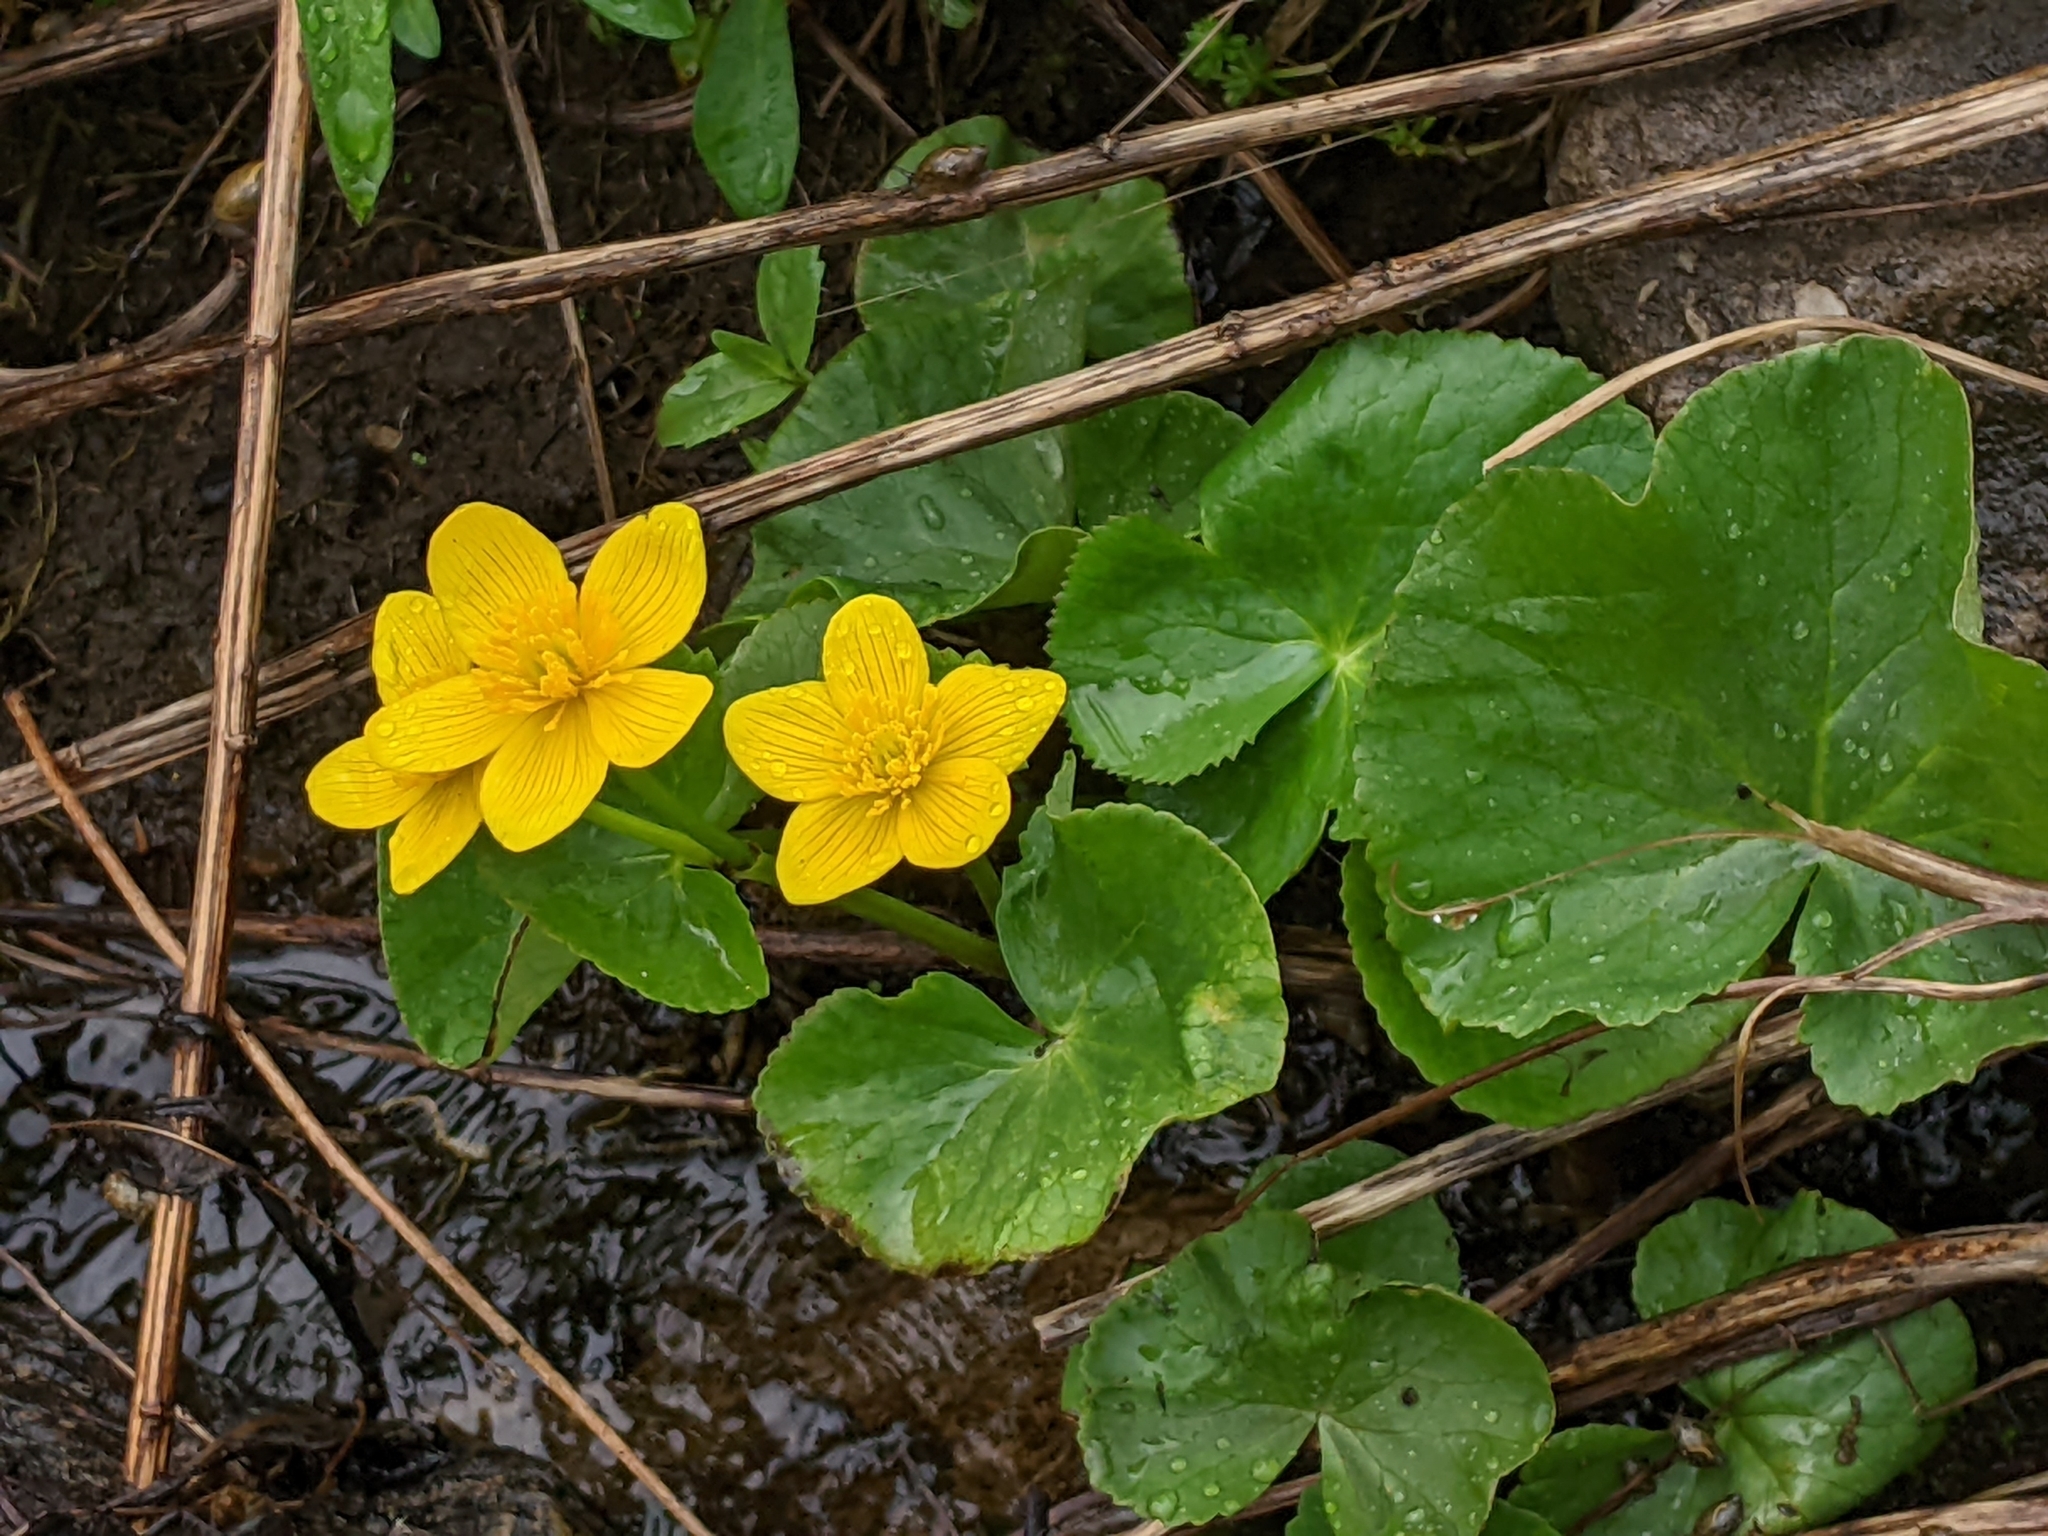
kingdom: Plantae
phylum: Tracheophyta
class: Magnoliopsida
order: Ranunculales
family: Ranunculaceae
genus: Caltha
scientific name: Caltha palustris
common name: Marsh marigold
